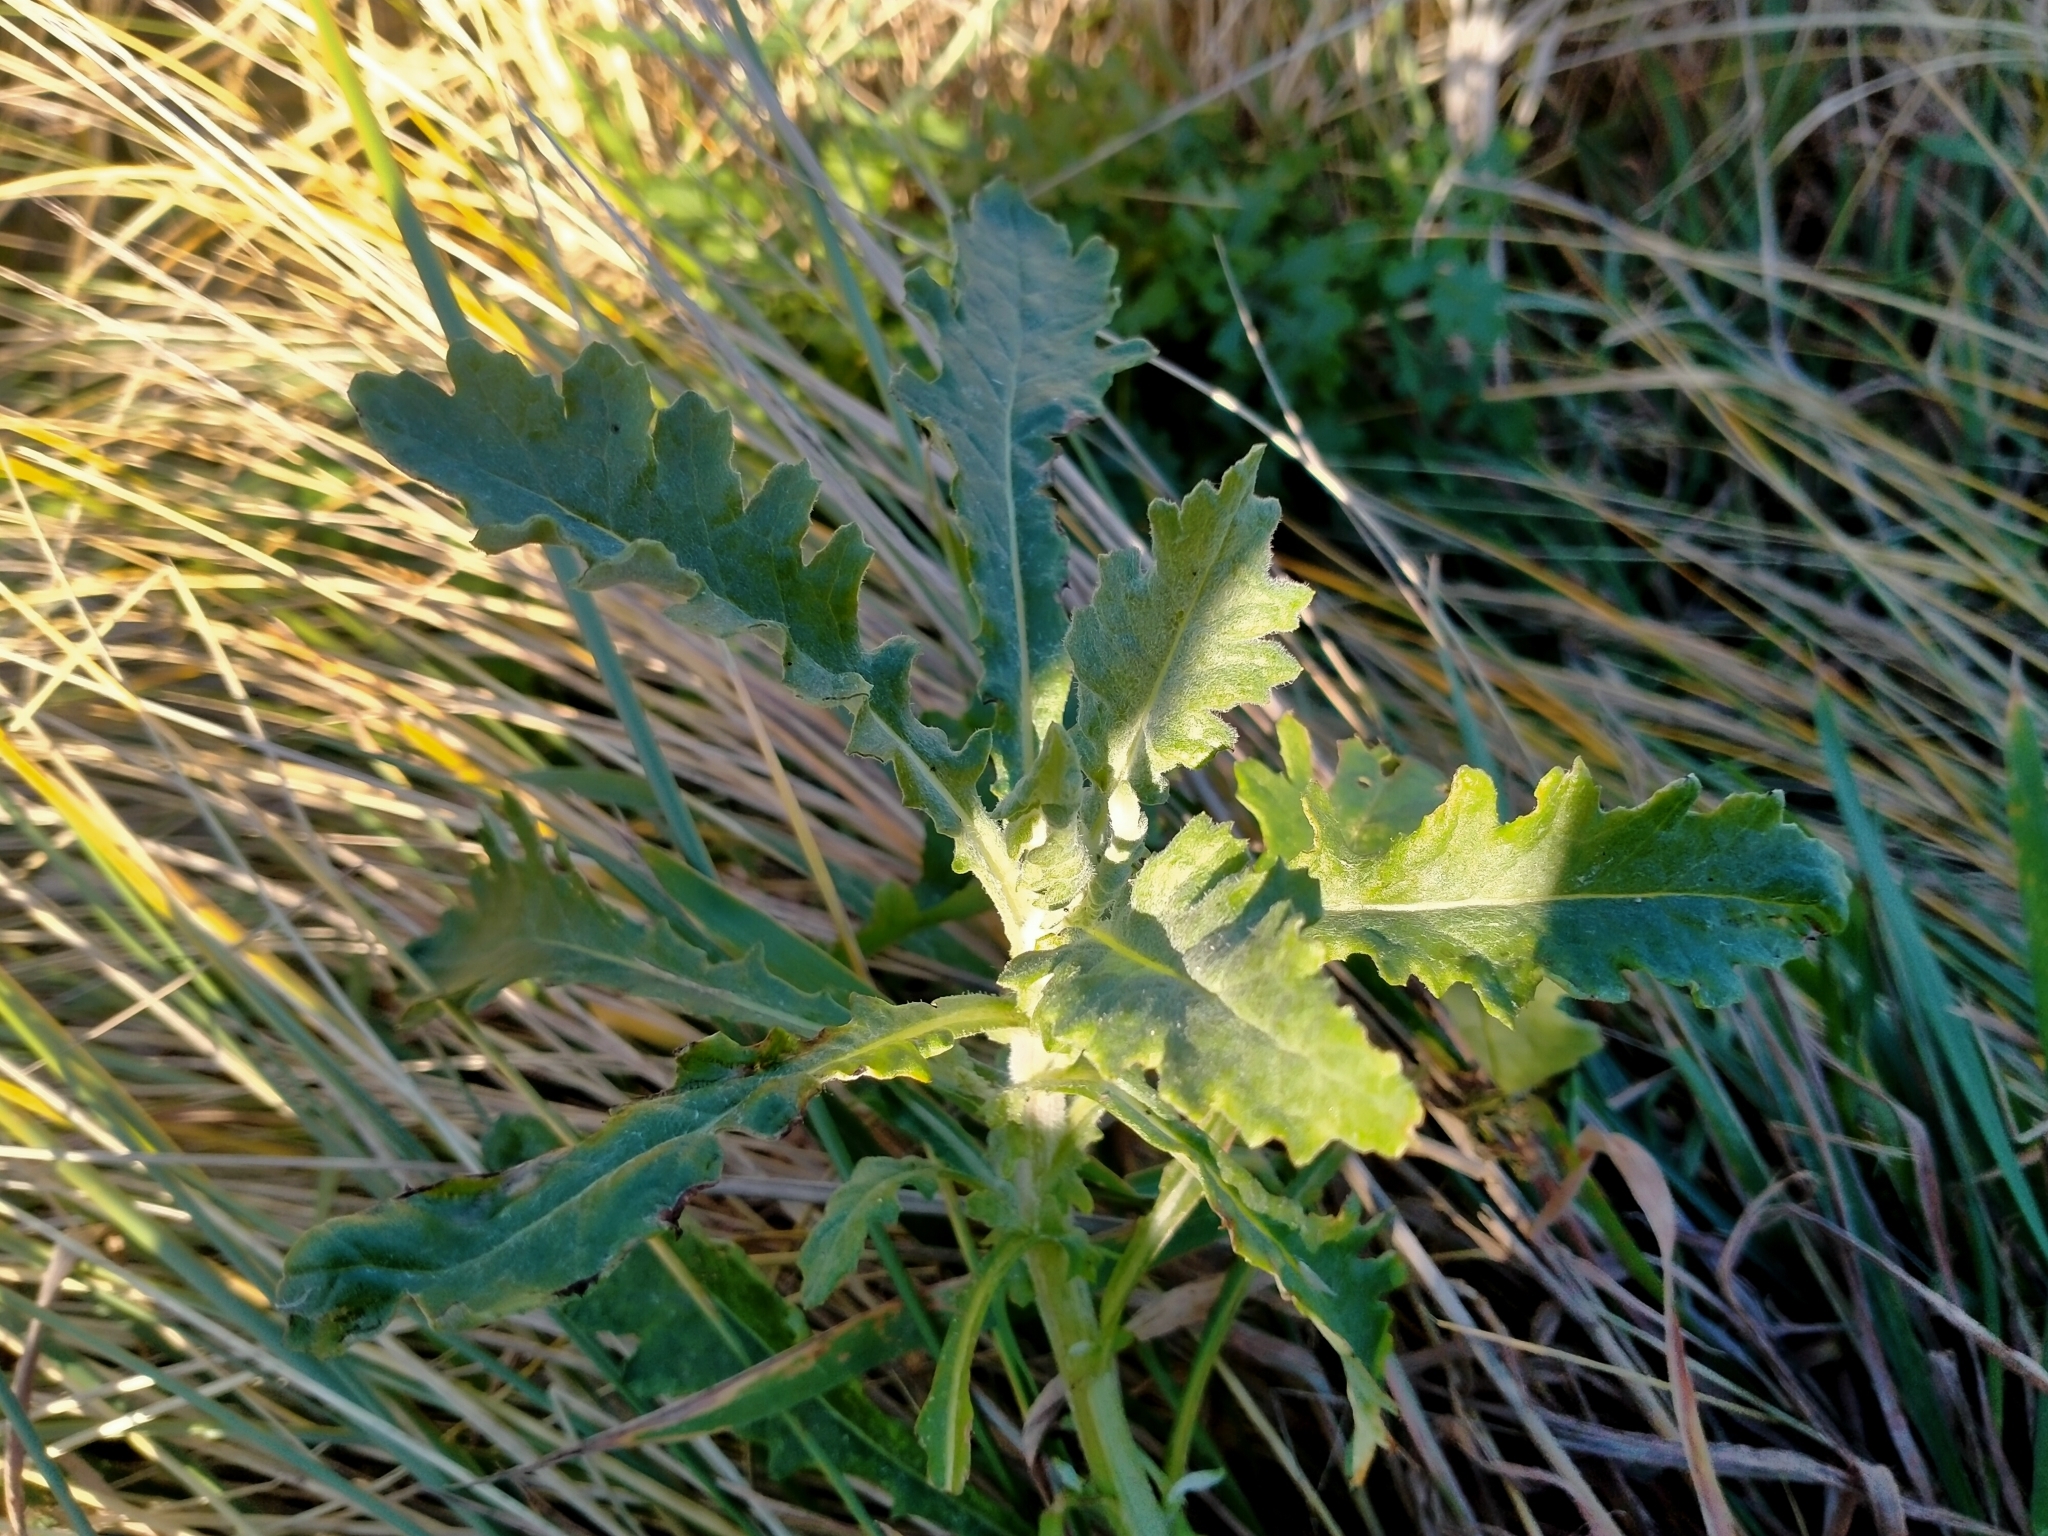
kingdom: Plantae
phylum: Tracheophyta
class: Magnoliopsida
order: Asterales
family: Asteraceae
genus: Senecio
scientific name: Senecio glomeratus
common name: Cutleaf burnweed
